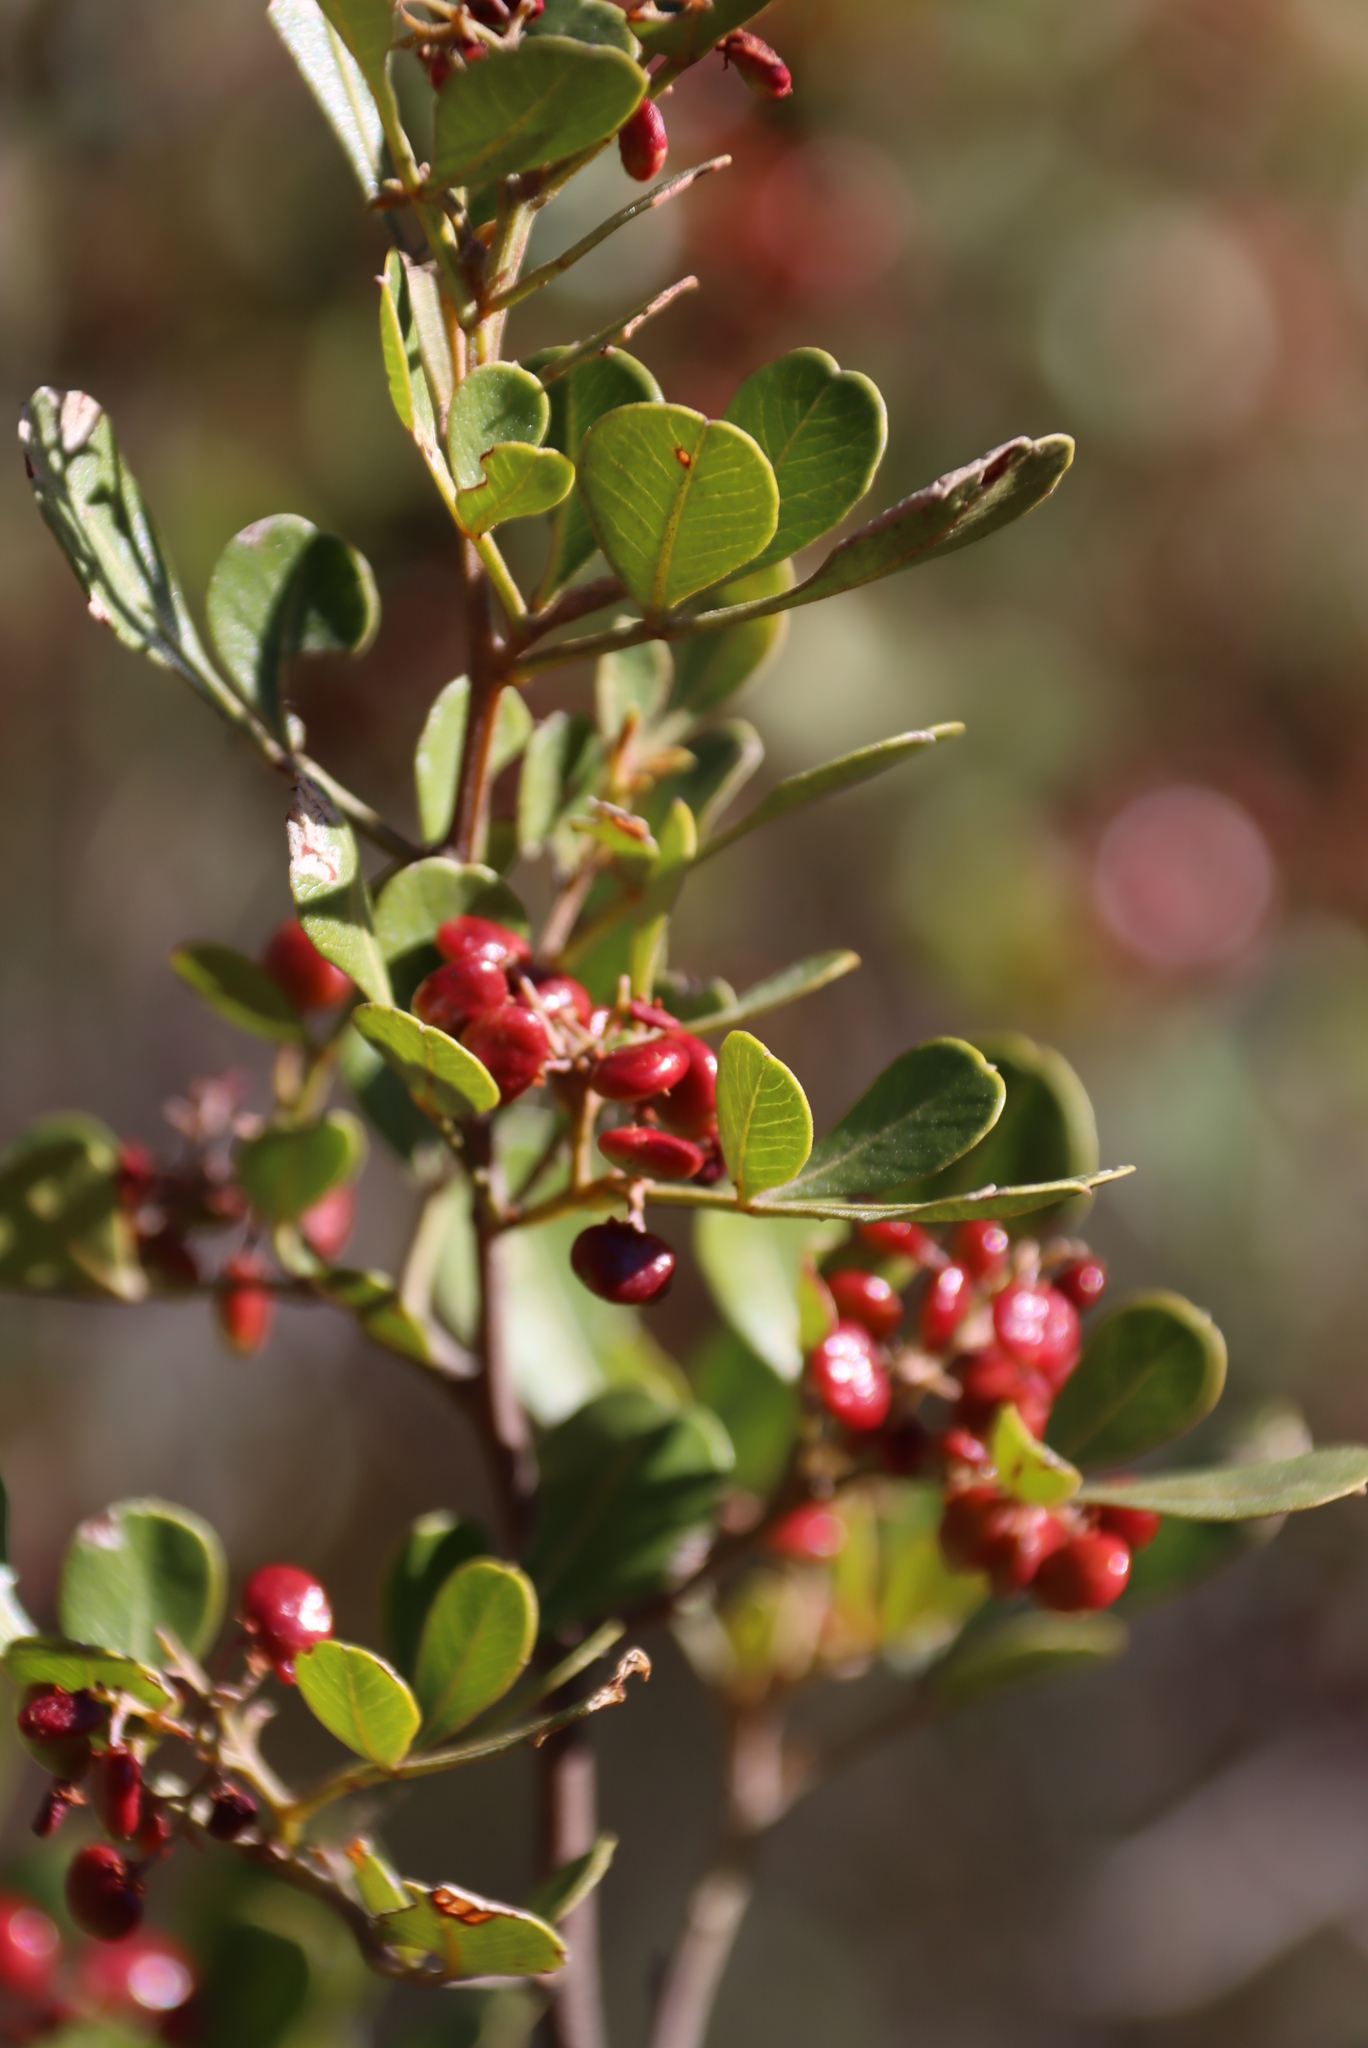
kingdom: Plantae
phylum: Tracheophyta
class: Magnoliopsida
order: Sapindales
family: Anacardiaceae
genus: Searsia
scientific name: Searsia pallens
